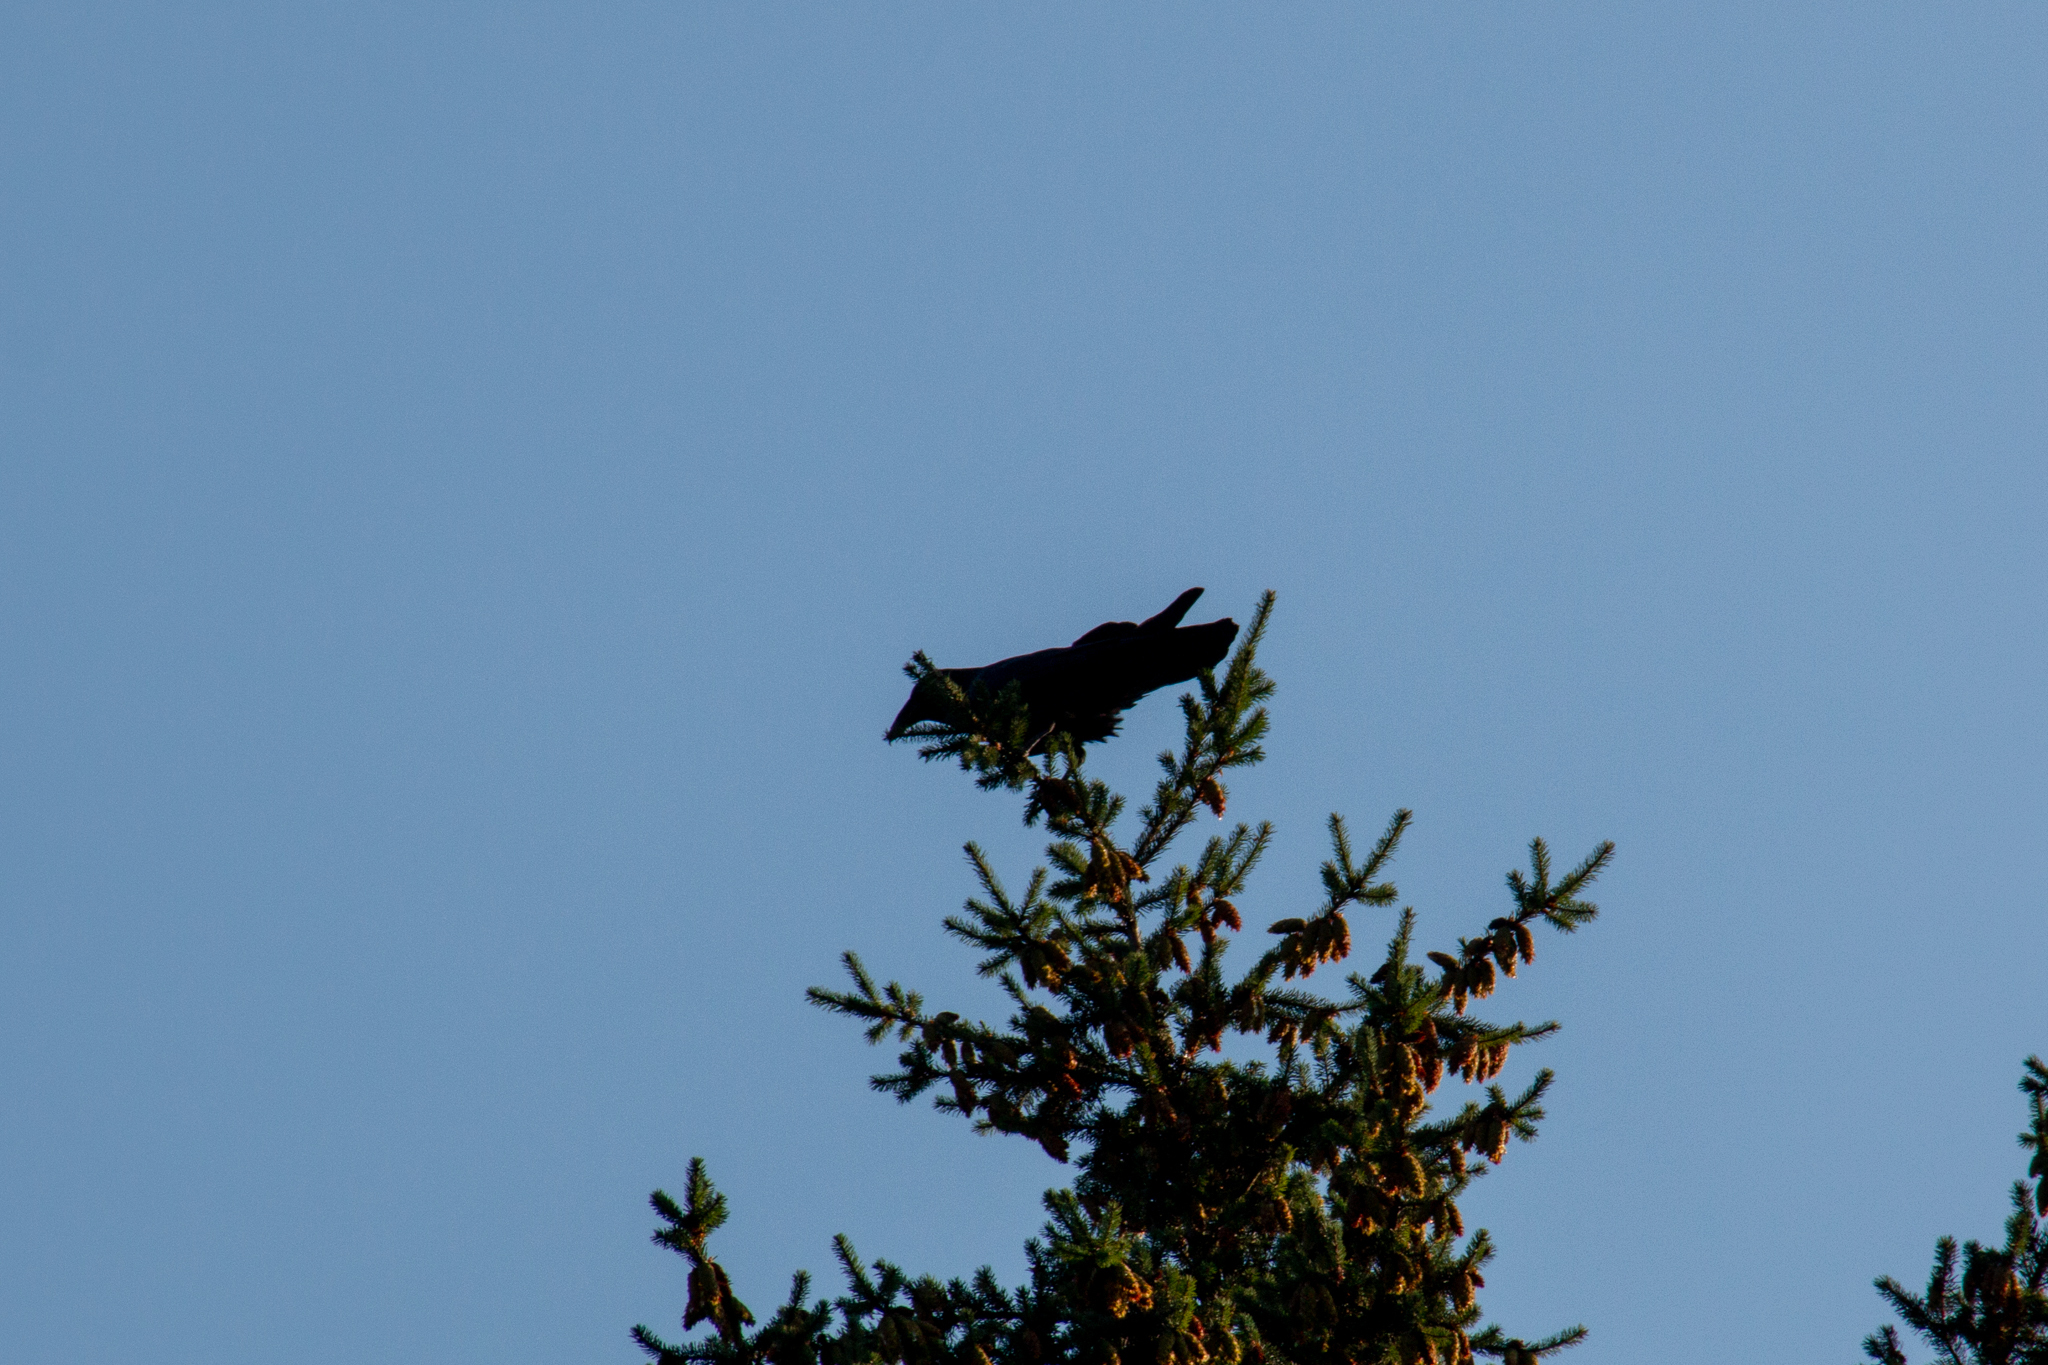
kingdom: Animalia
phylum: Chordata
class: Aves
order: Passeriformes
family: Corvidae
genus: Corvus
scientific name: Corvus corax
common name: Common raven
